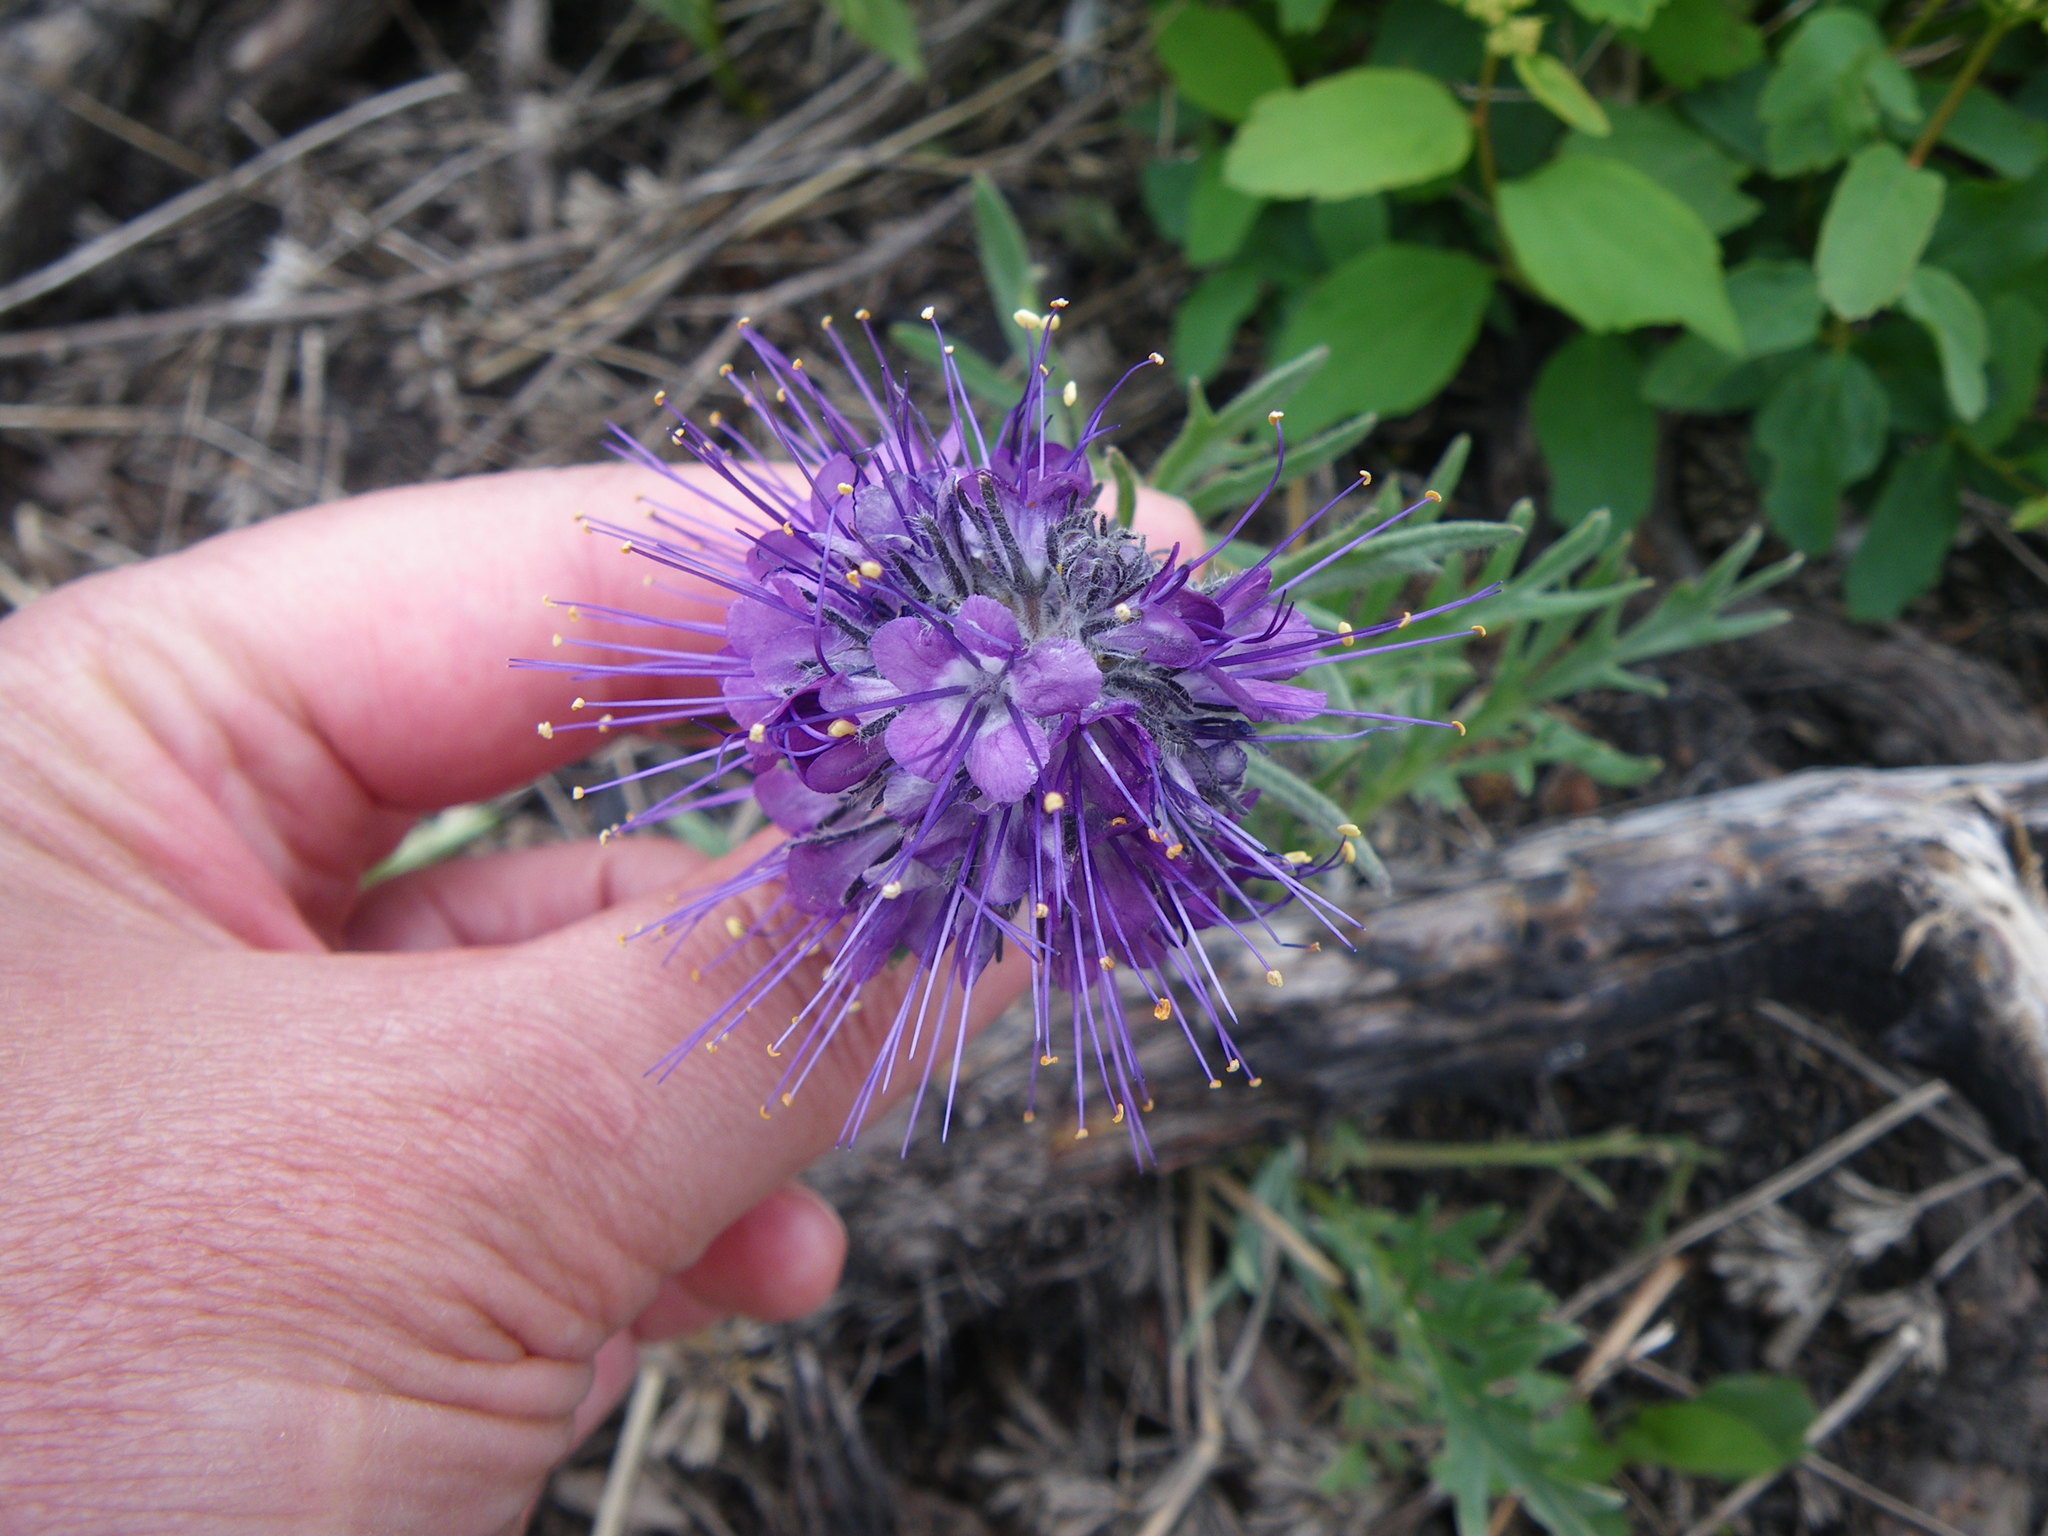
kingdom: Plantae
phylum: Tracheophyta
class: Magnoliopsida
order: Boraginales
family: Hydrophyllaceae
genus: Phacelia
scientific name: Phacelia sericea
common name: Silky phacelia
